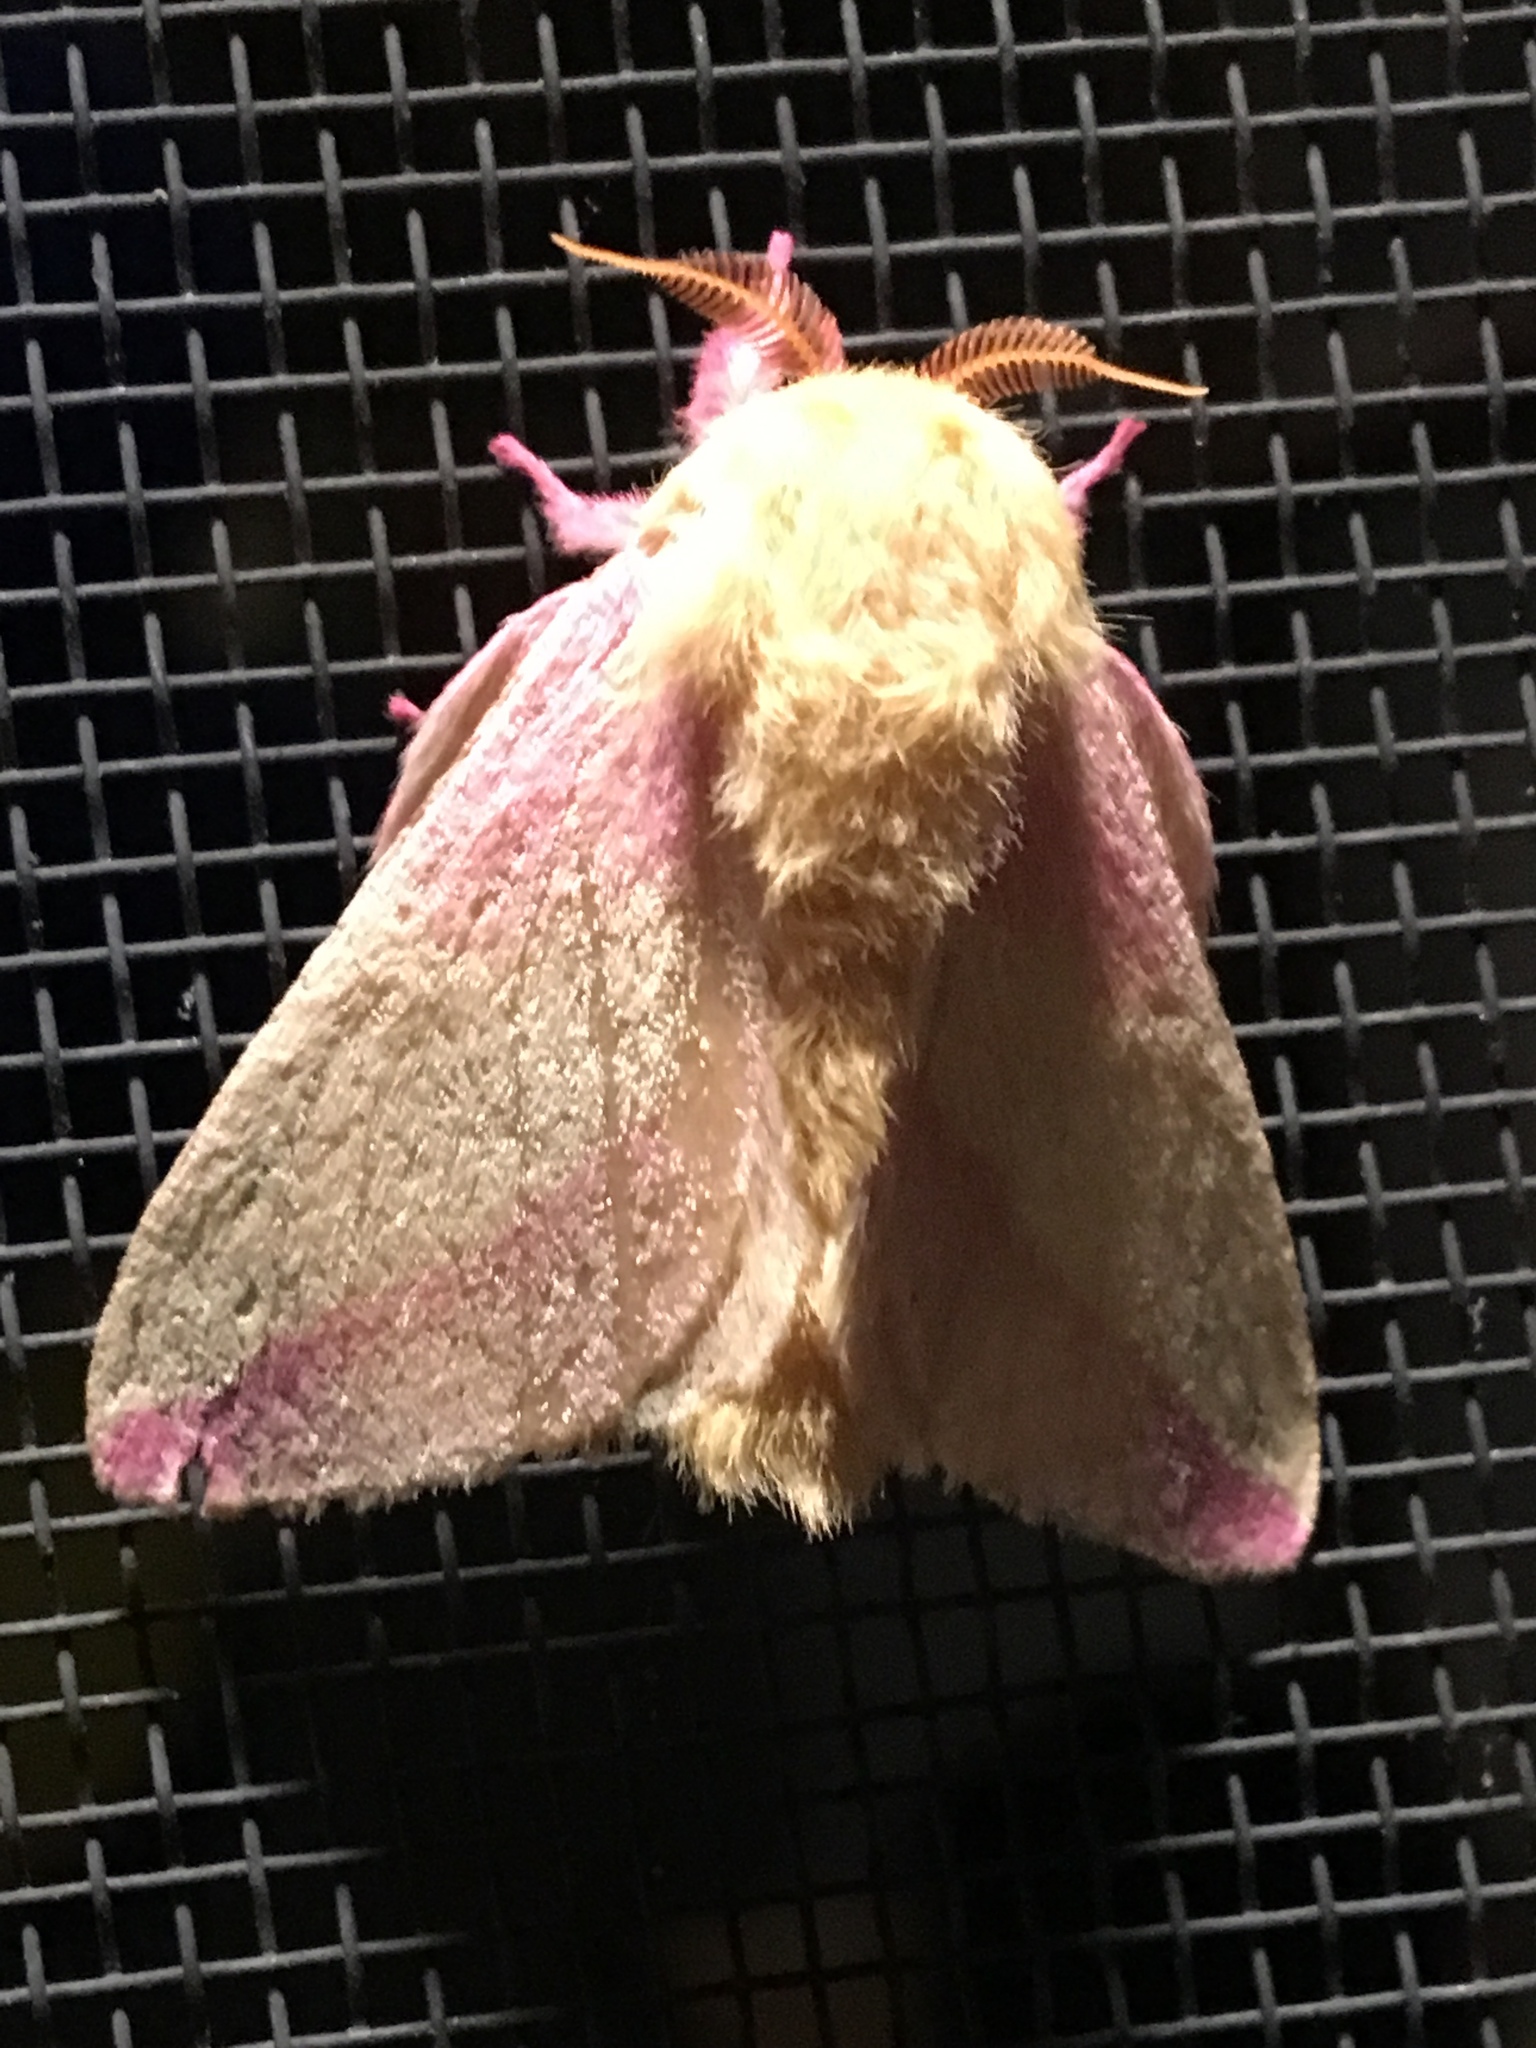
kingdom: Animalia
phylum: Arthropoda
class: Insecta
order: Lepidoptera
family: Saturniidae
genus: Dryocampa
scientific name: Dryocampa rubicunda
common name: Rosy maple moth
